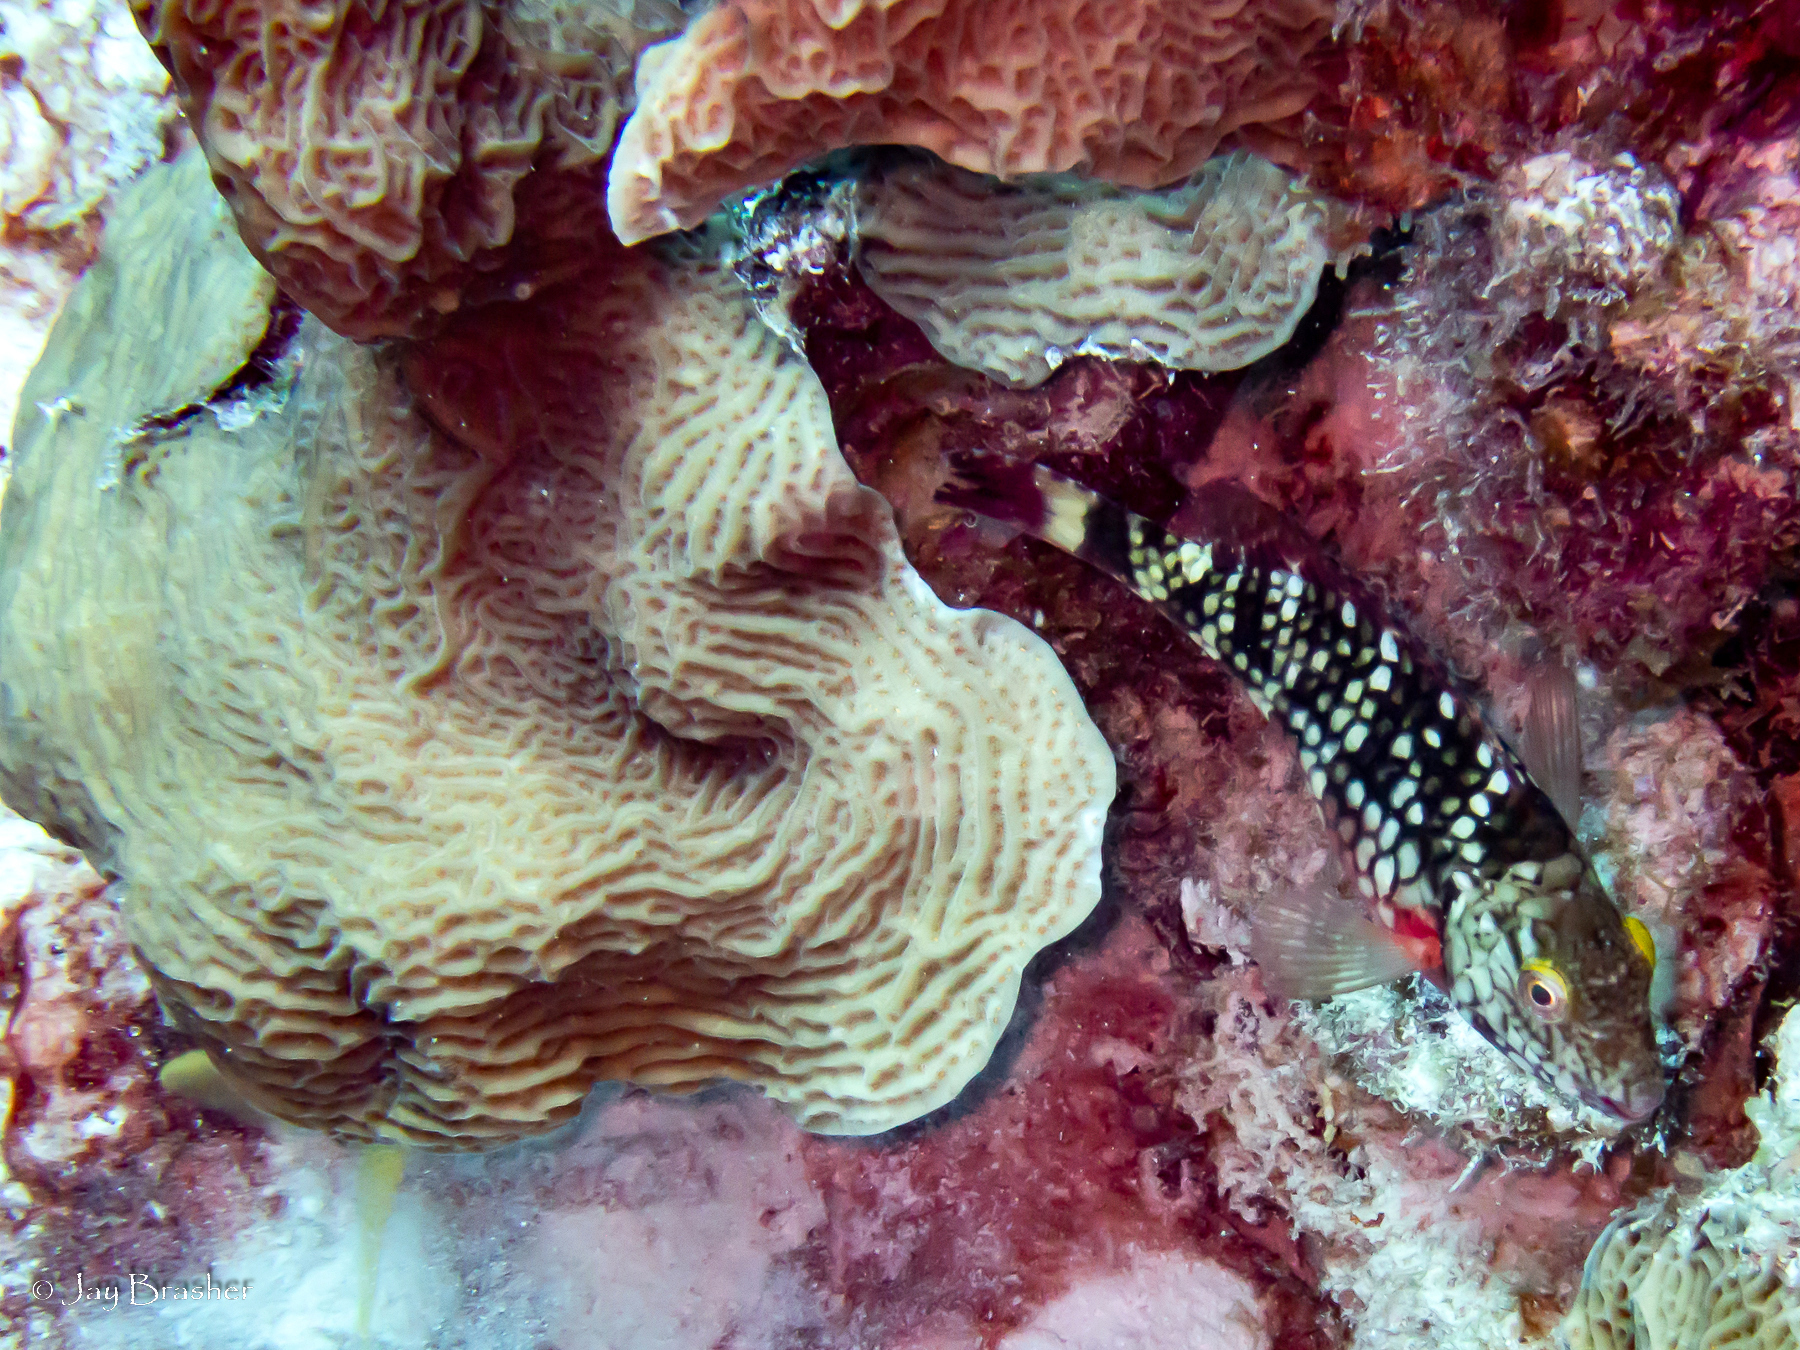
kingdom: Animalia
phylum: Cnidaria
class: Anthozoa
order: Scleractinia
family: Agariciidae
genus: Agaricia
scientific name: Agaricia agaricites
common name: Lettuce coral
